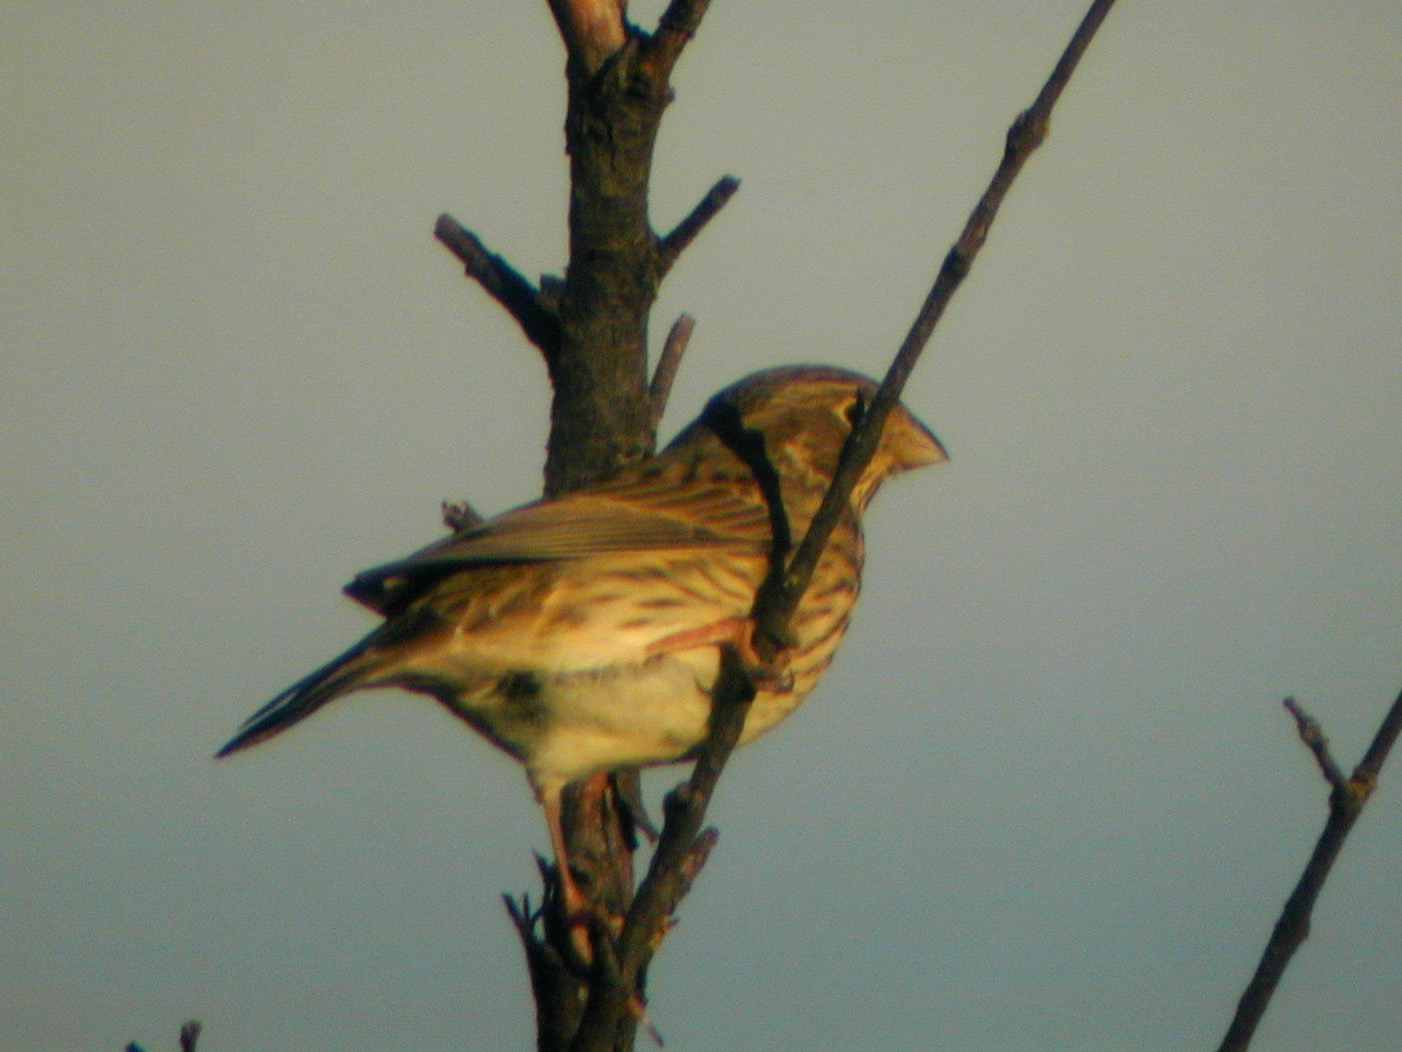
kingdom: Animalia
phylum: Chordata
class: Aves
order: Passeriformes
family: Emberizidae
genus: Emberiza
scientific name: Emberiza calandra
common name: Corn bunting
